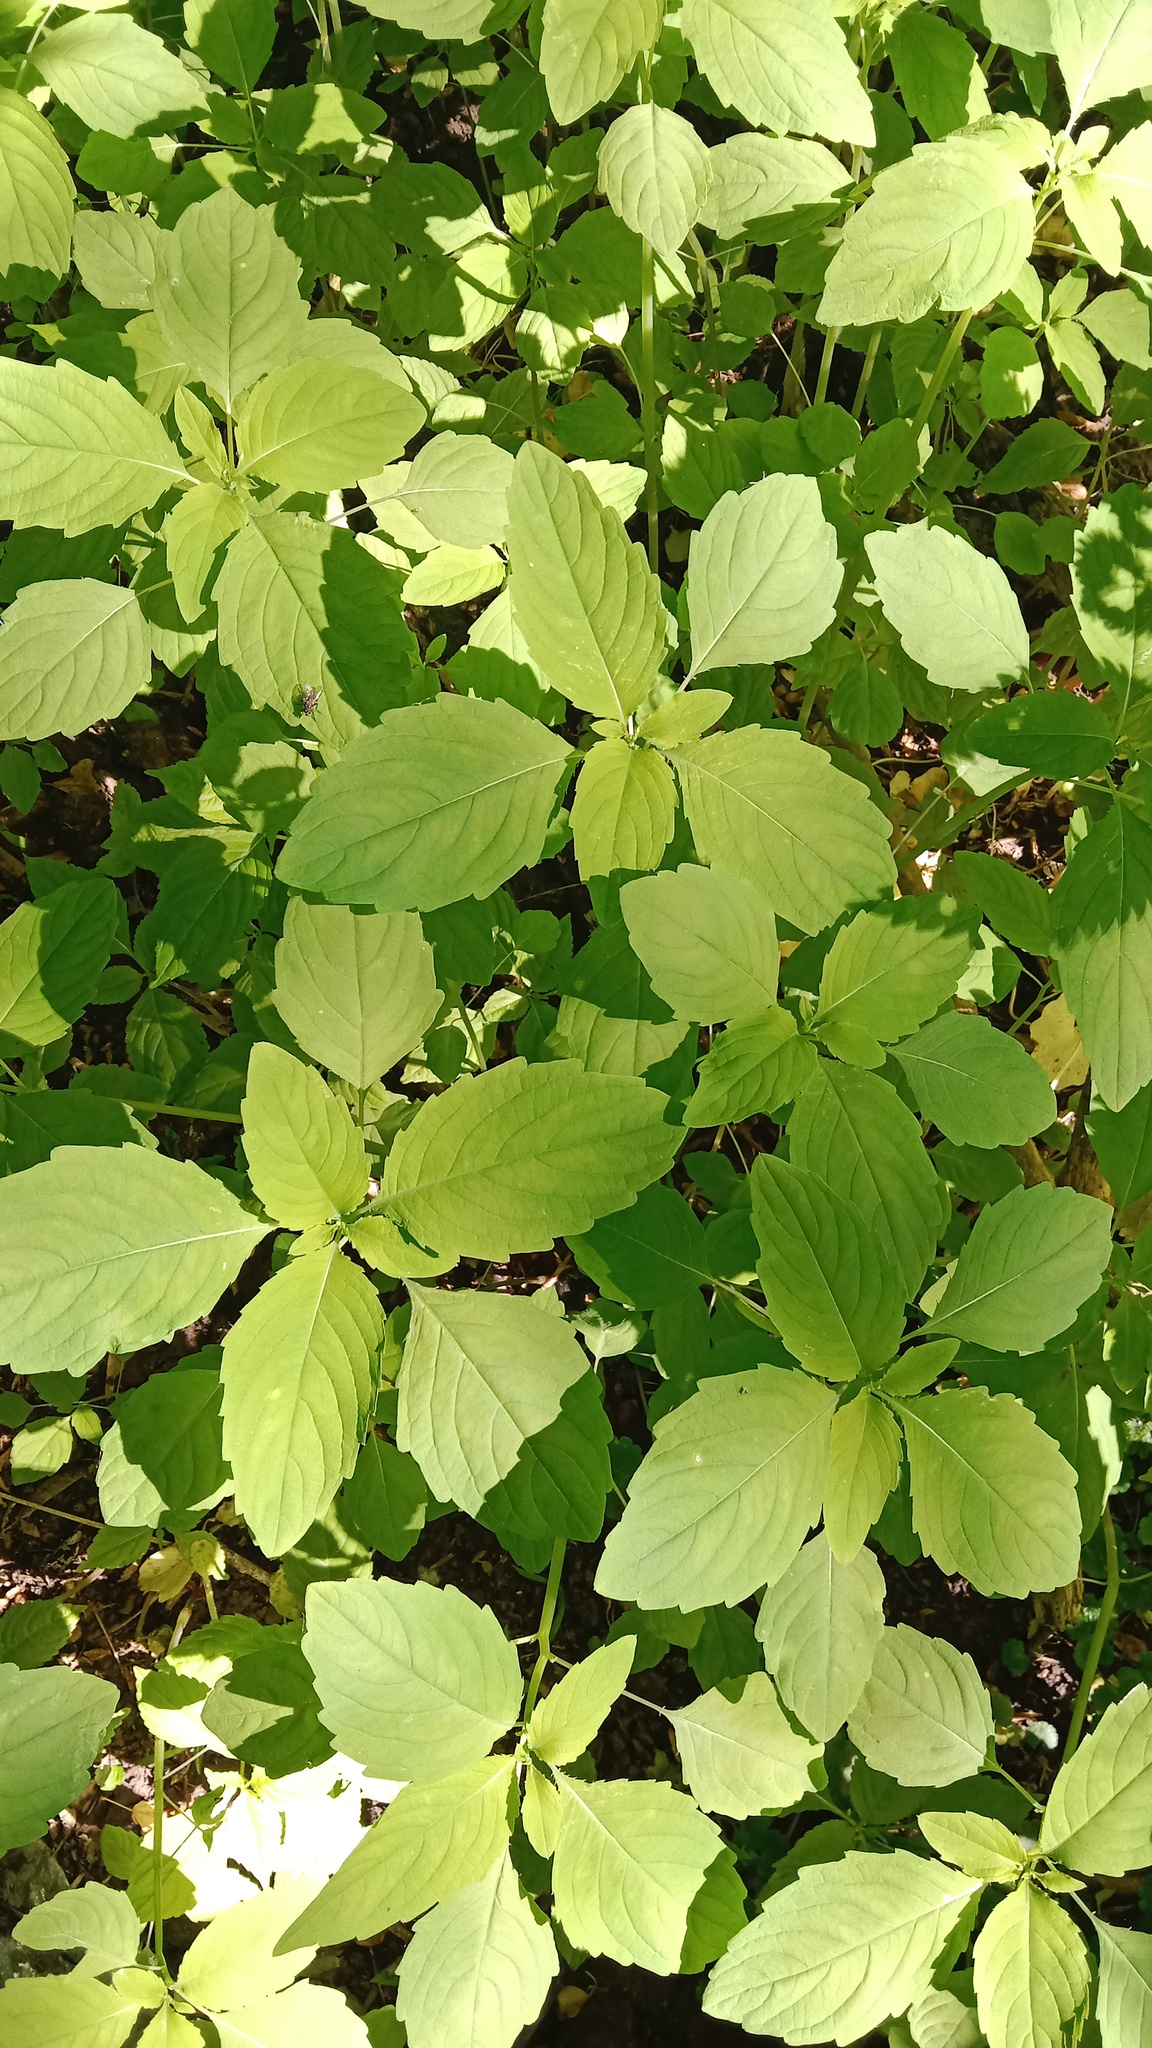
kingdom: Plantae
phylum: Tracheophyta
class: Magnoliopsida
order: Ericales
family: Balsaminaceae
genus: Impatiens
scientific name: Impatiens noli-tangere
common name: Touch-me-not balsam
